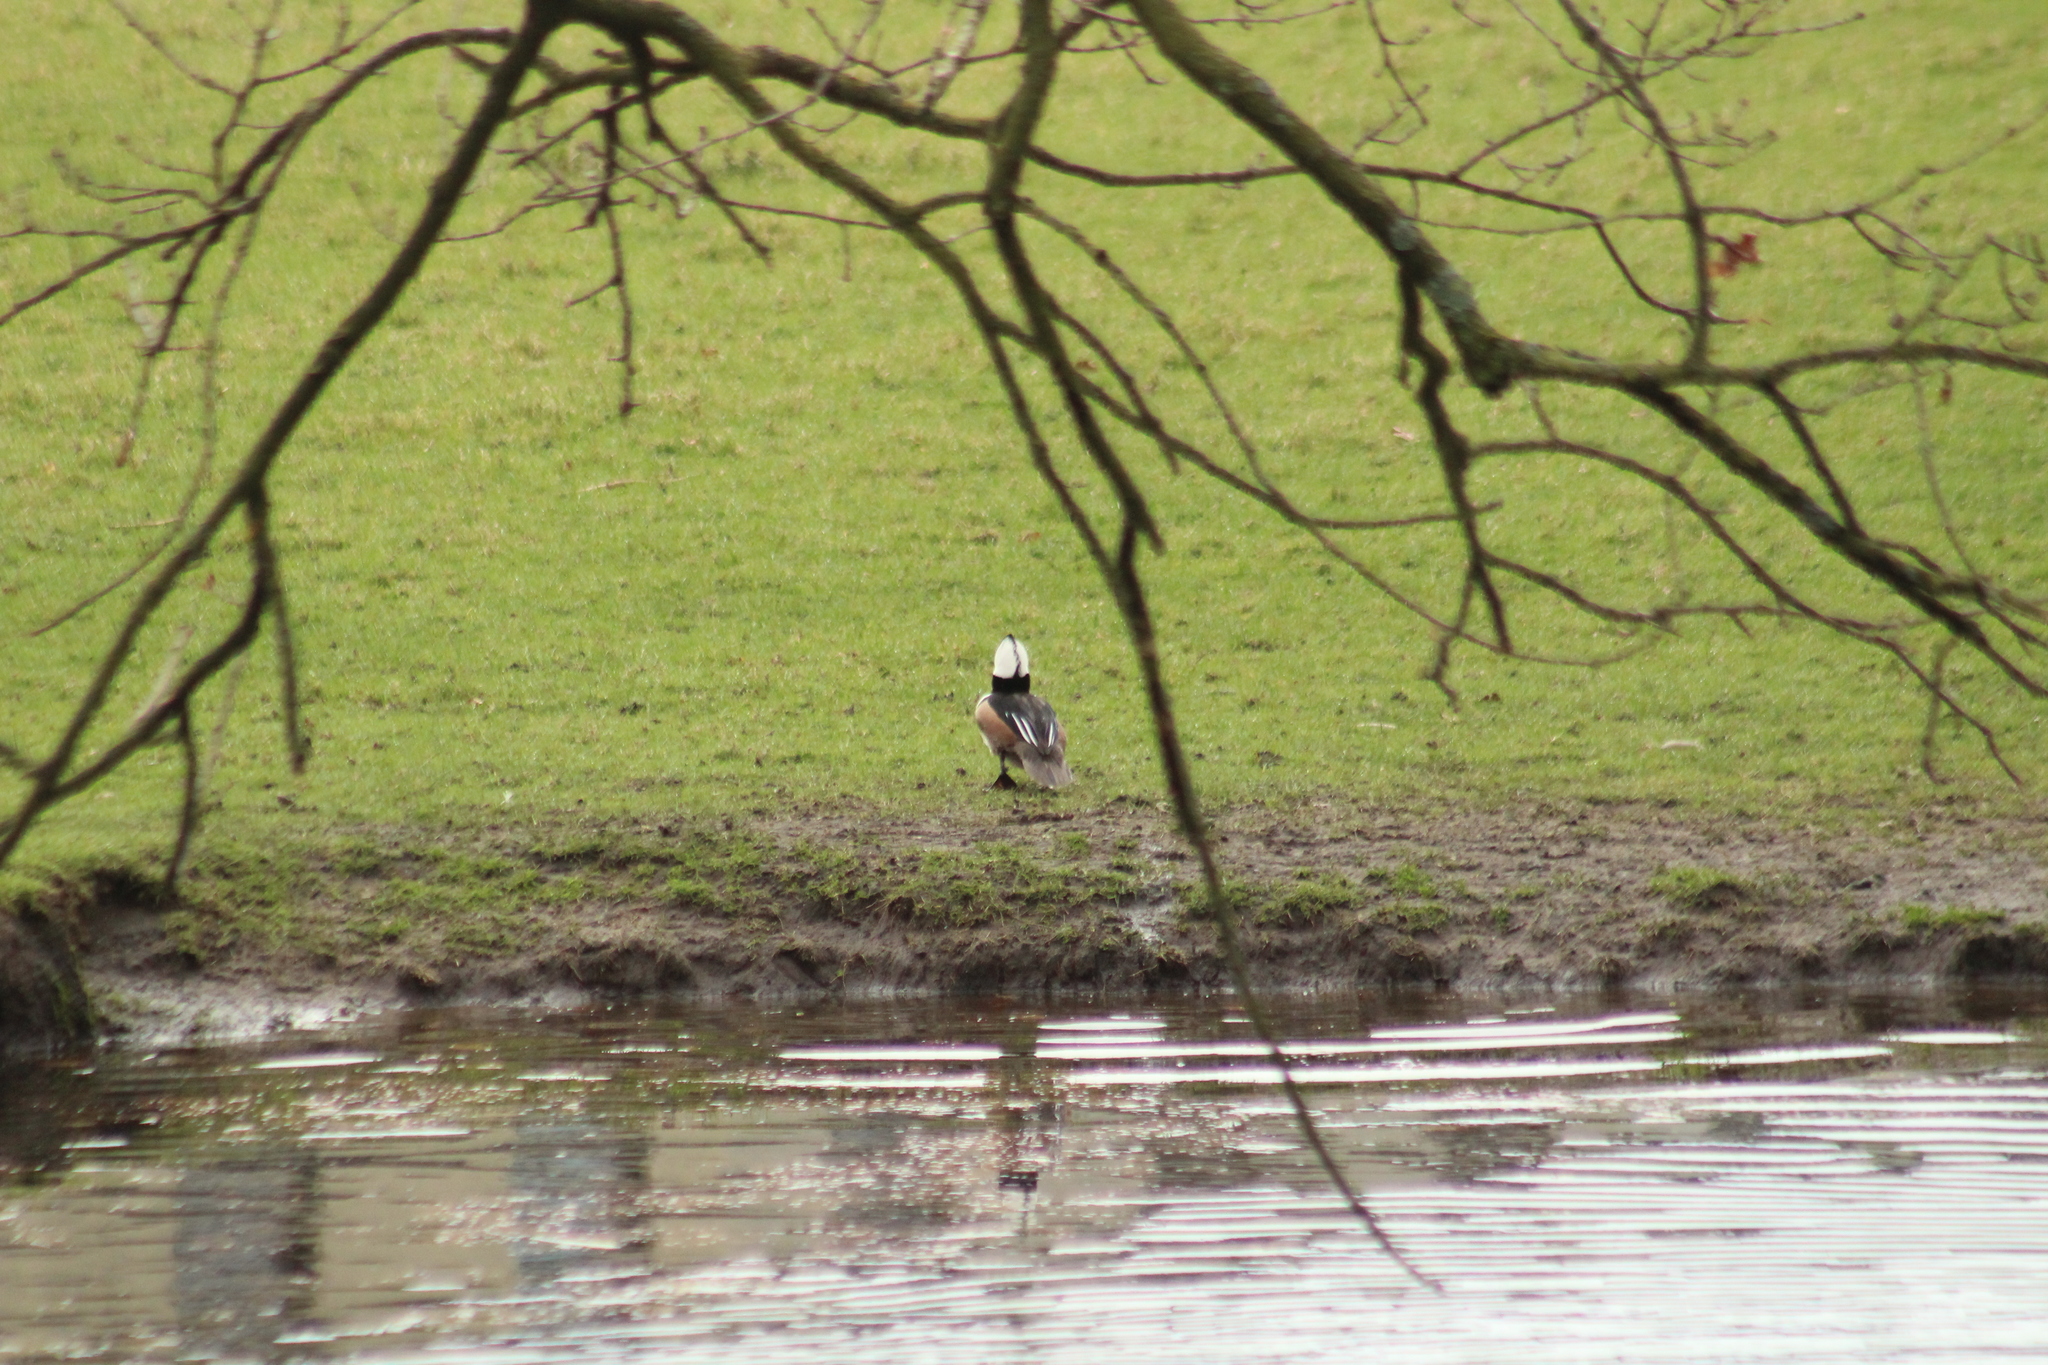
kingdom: Animalia
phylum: Chordata
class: Aves
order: Anseriformes
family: Anatidae
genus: Lophodytes
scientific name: Lophodytes cucullatus
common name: Hooded merganser
